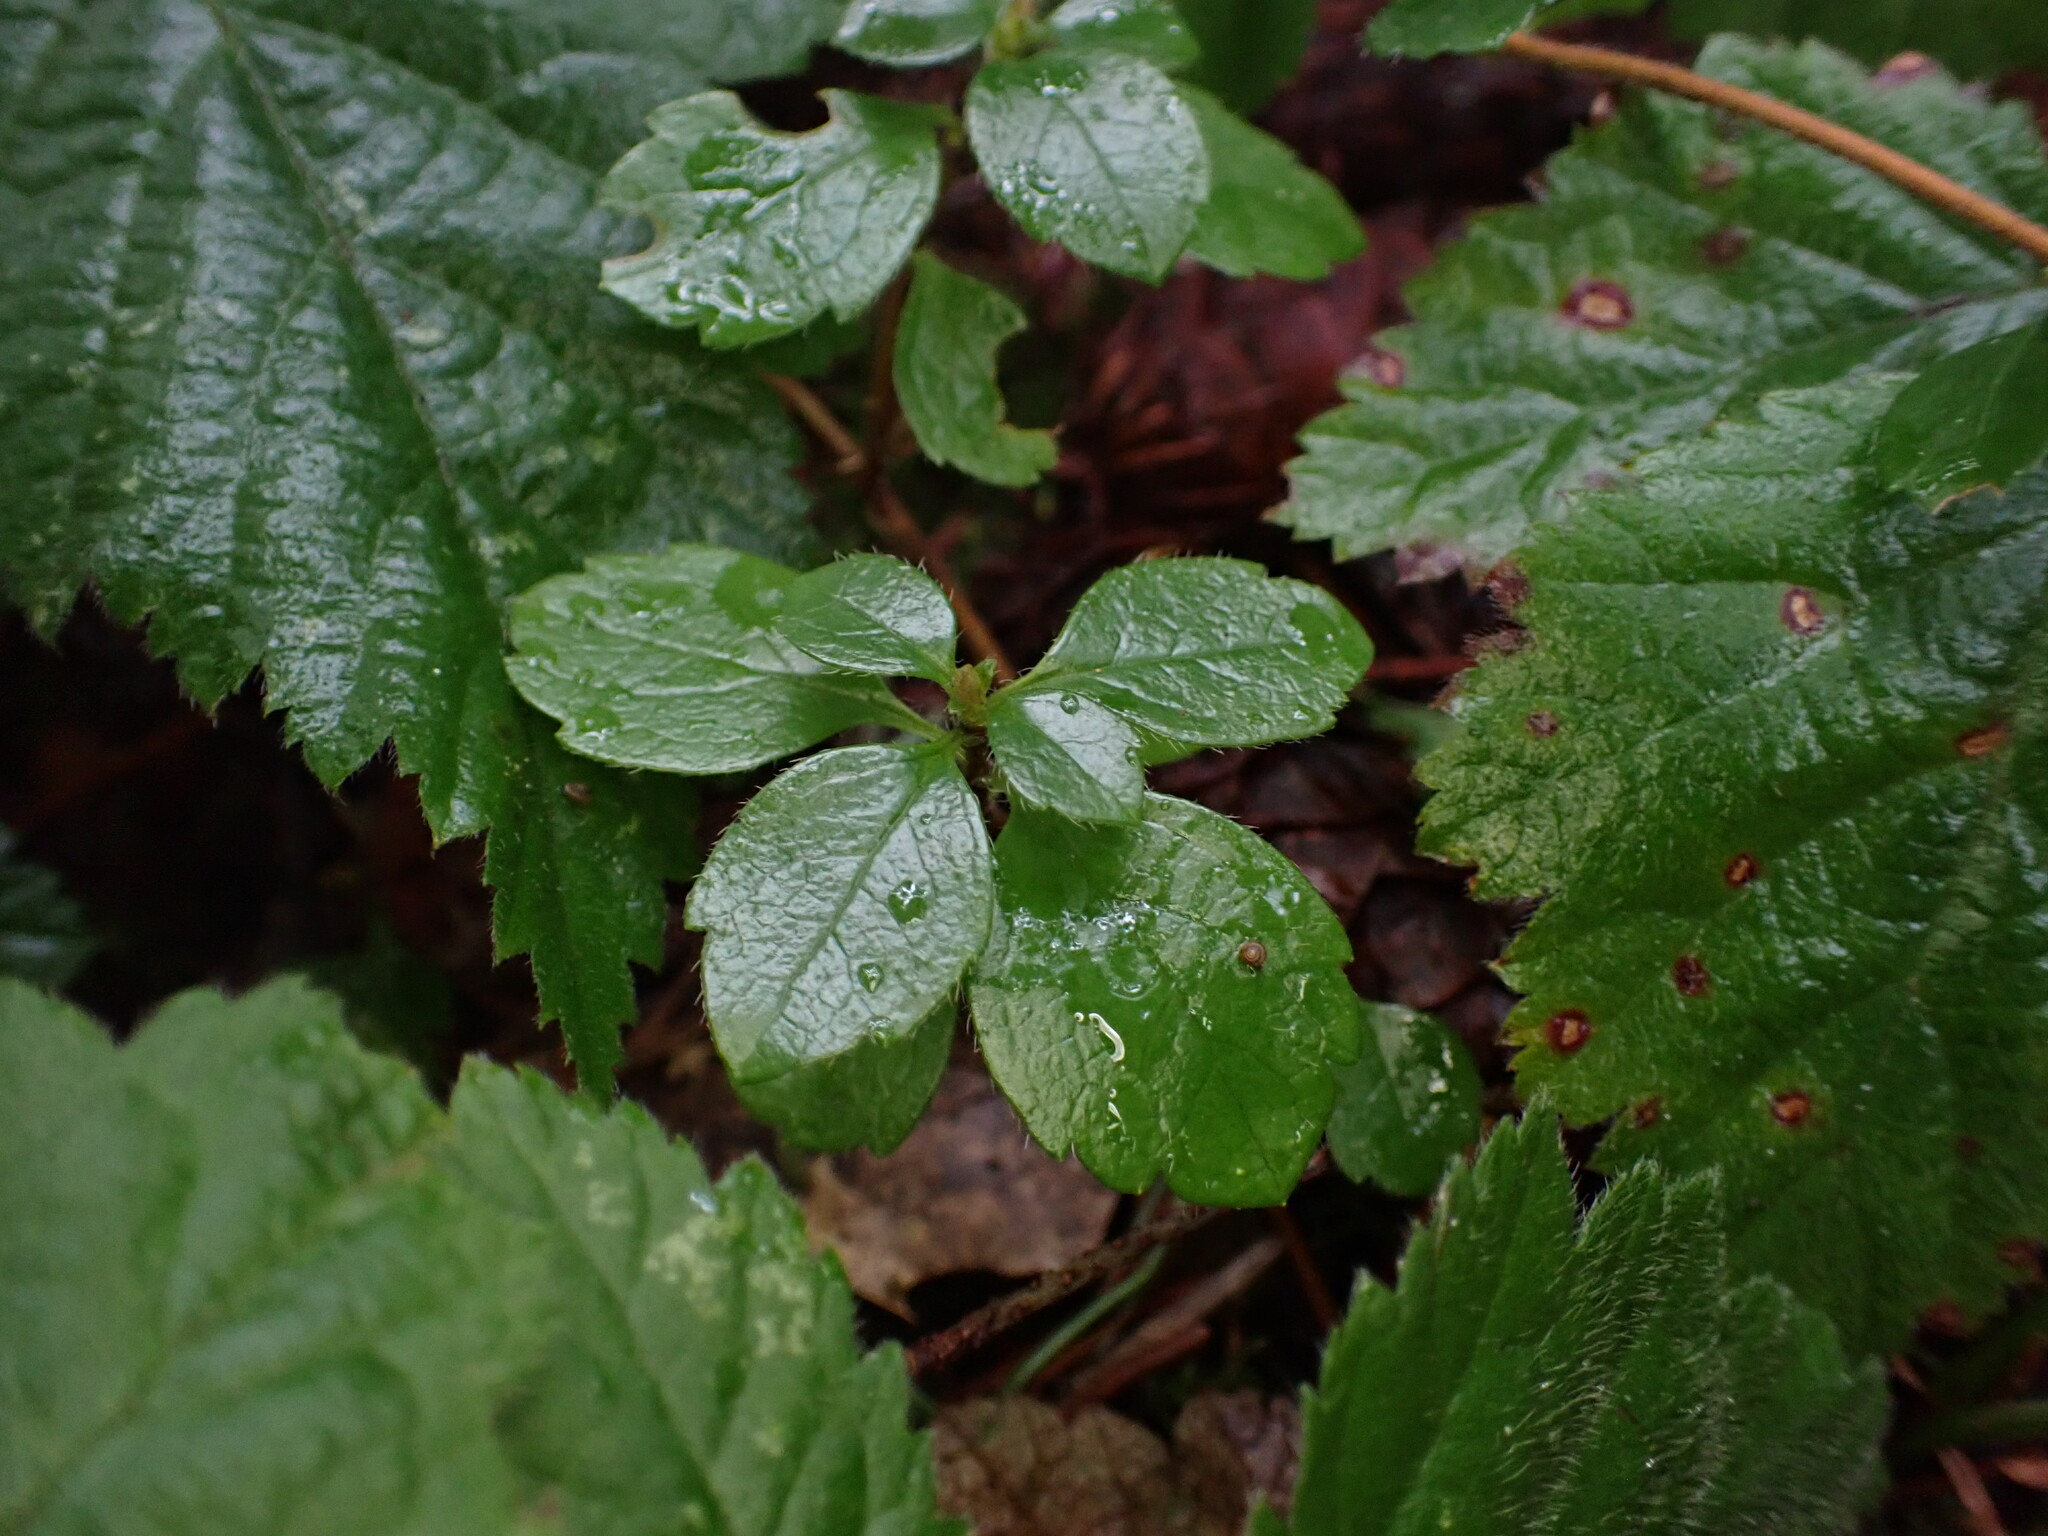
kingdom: Plantae
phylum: Tracheophyta
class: Magnoliopsida
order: Dipsacales
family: Caprifoliaceae
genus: Linnaea
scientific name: Linnaea borealis
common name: Twinflower
